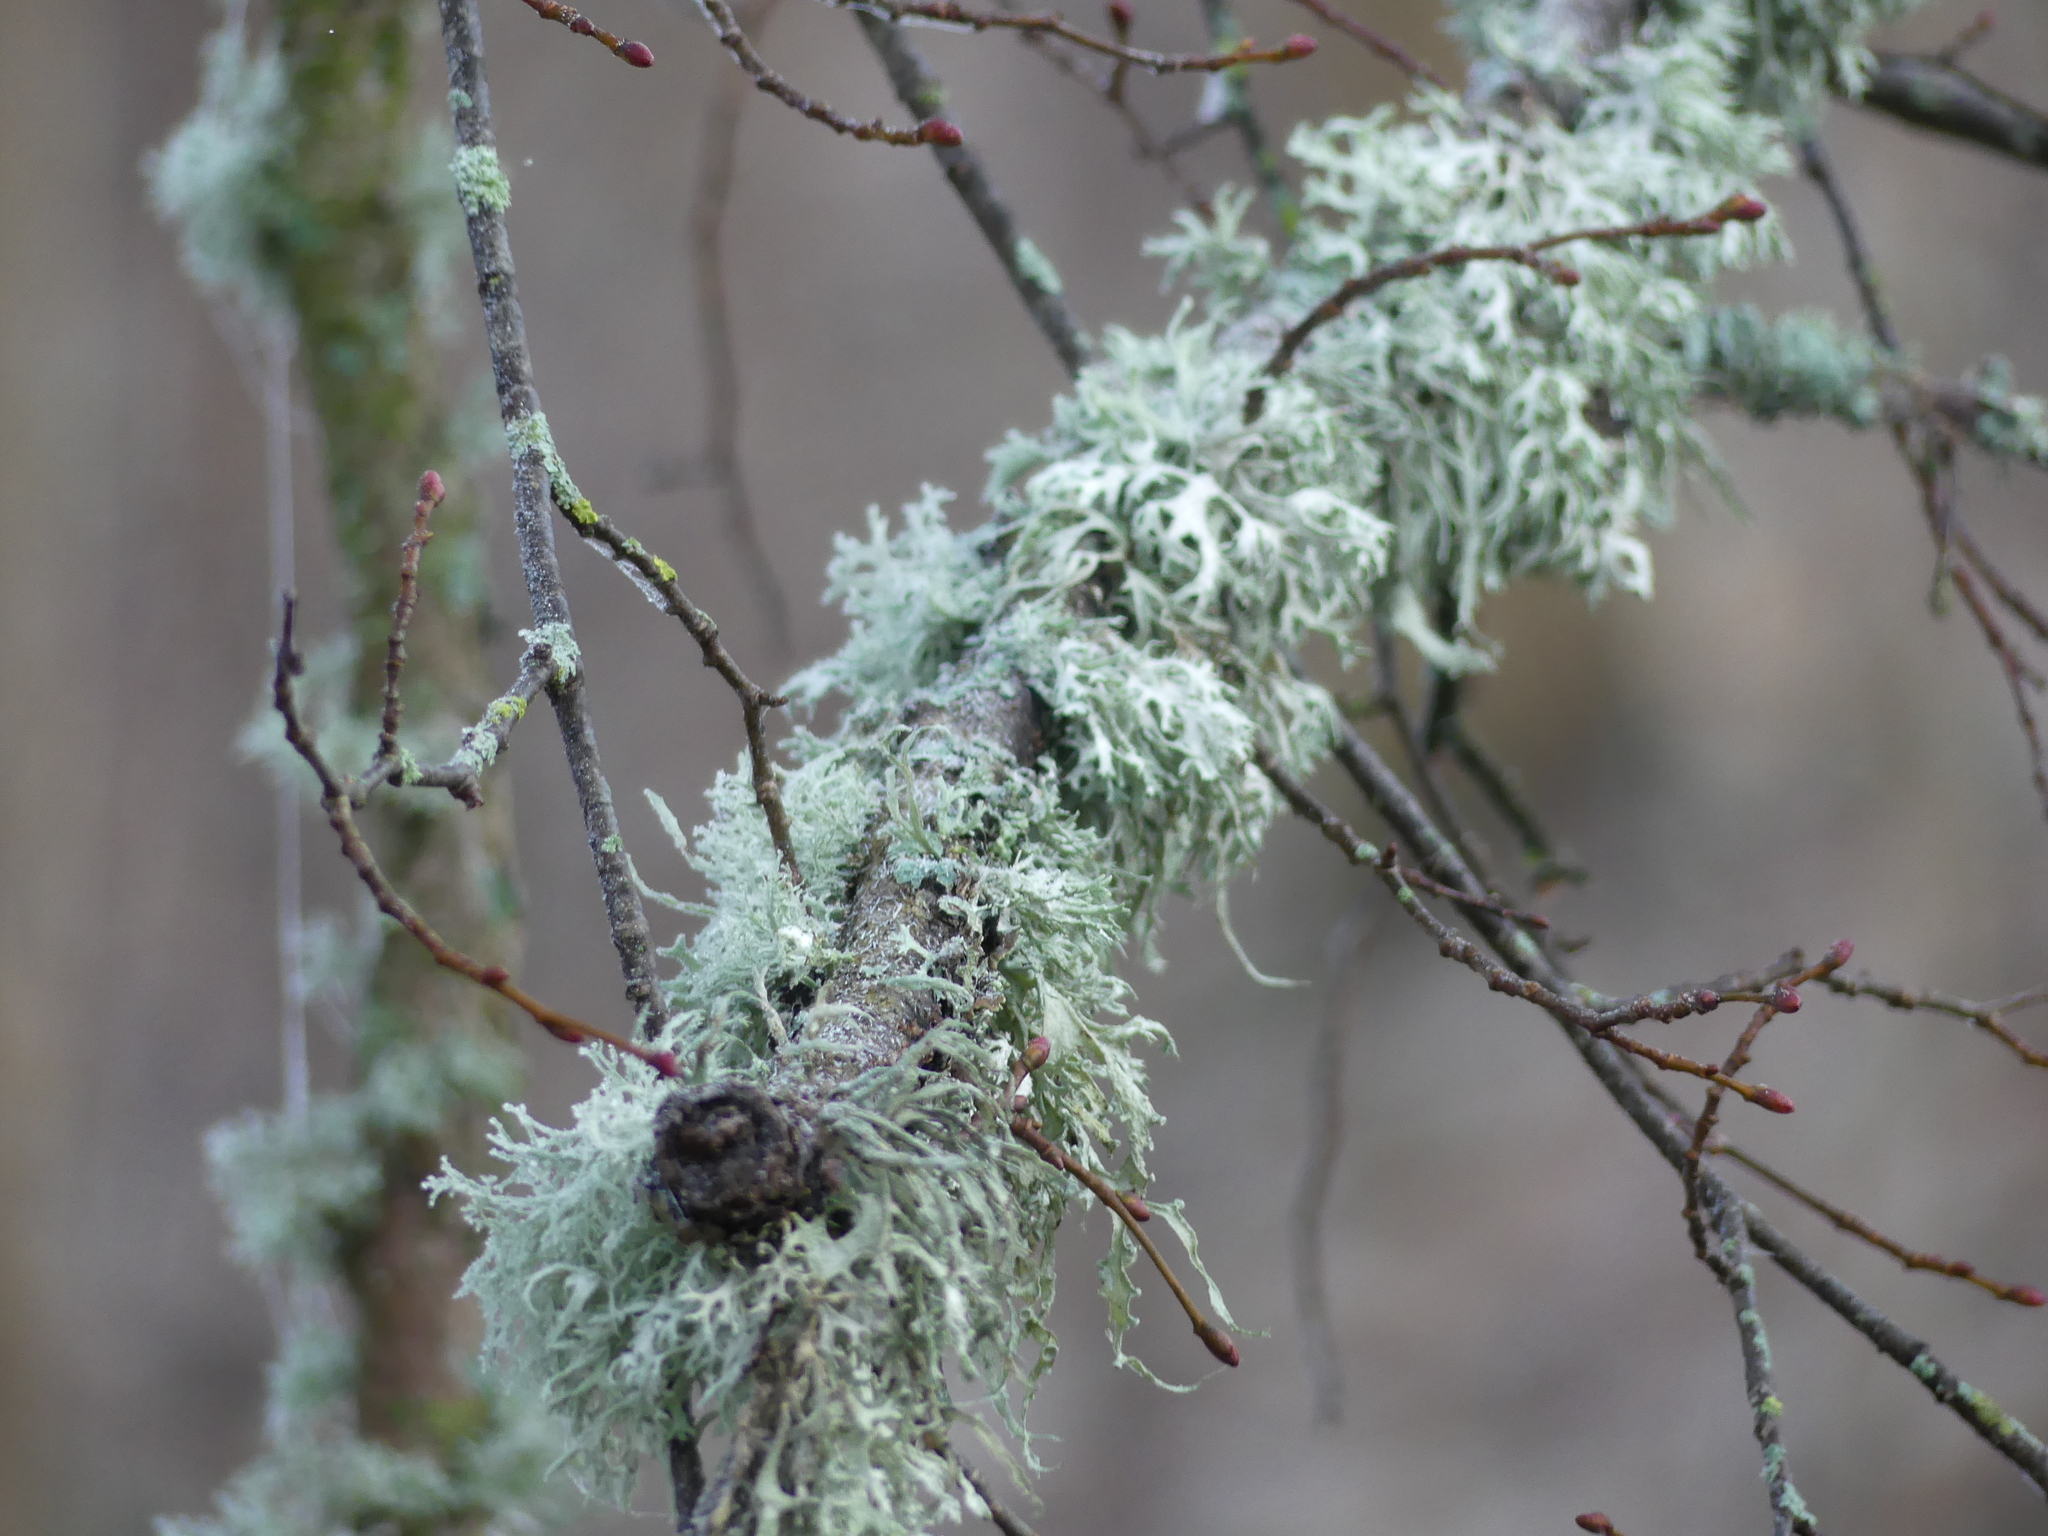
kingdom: Fungi
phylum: Ascomycota
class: Lecanoromycetes
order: Lecanorales
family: Ramalinaceae
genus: Ramalina
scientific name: Ramalina farinacea
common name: Farinose cartilage lichen
